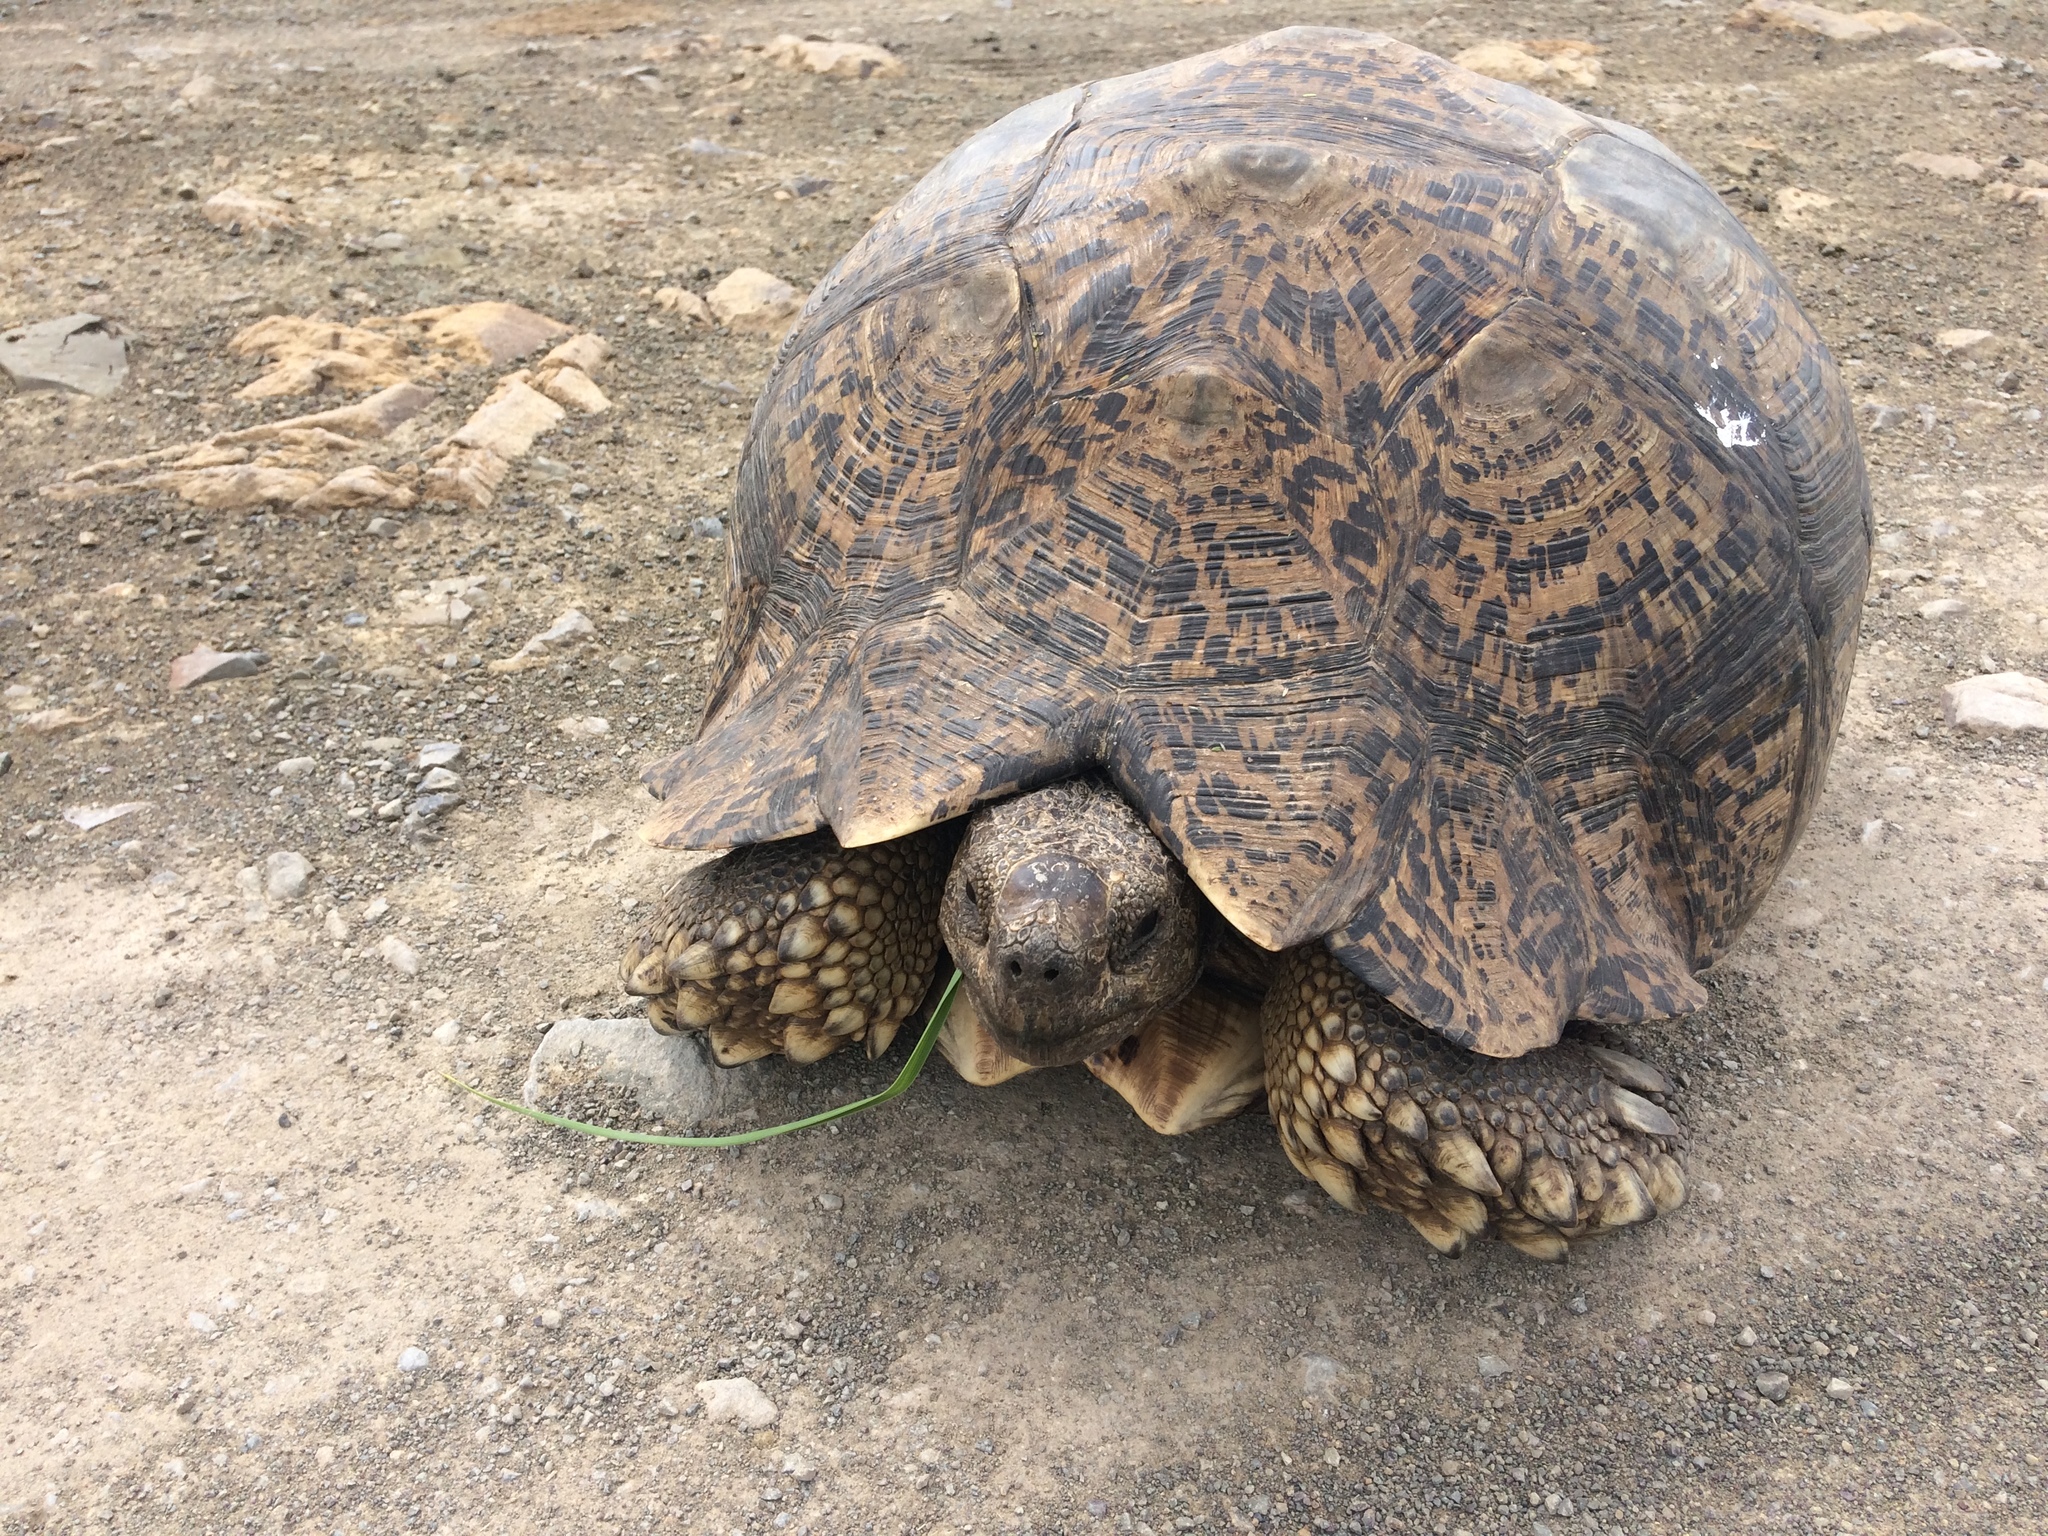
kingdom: Animalia
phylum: Chordata
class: Testudines
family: Testudinidae
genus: Stigmochelys
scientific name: Stigmochelys pardalis
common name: Leopard tortoise
